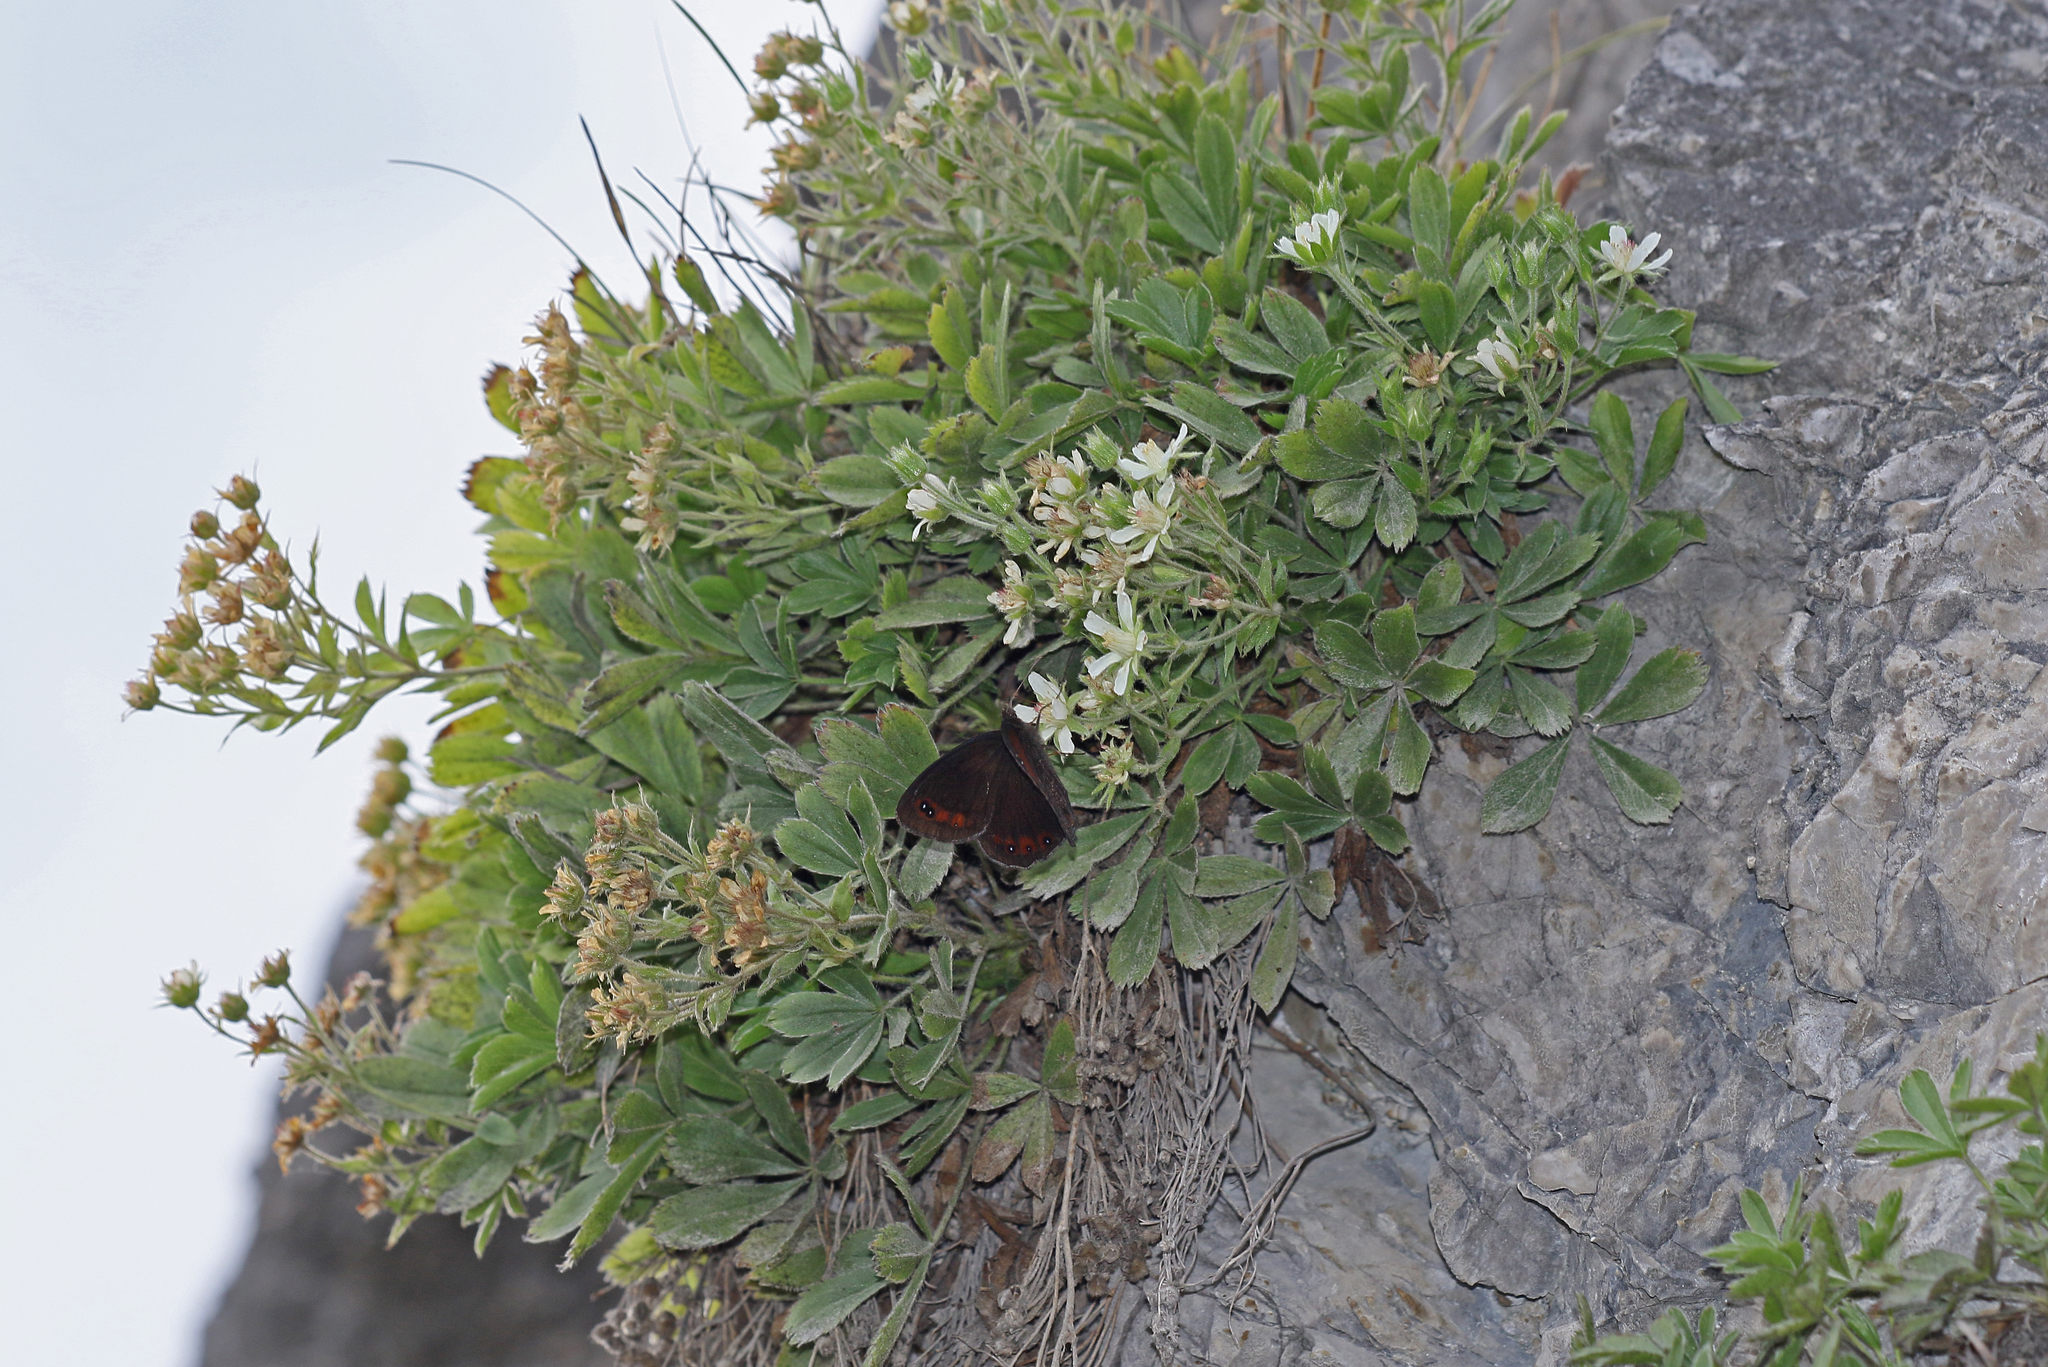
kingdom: Animalia
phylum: Arthropoda
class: Insecta
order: Lepidoptera
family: Nymphalidae
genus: Callerebia
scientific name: Callerebia mani
